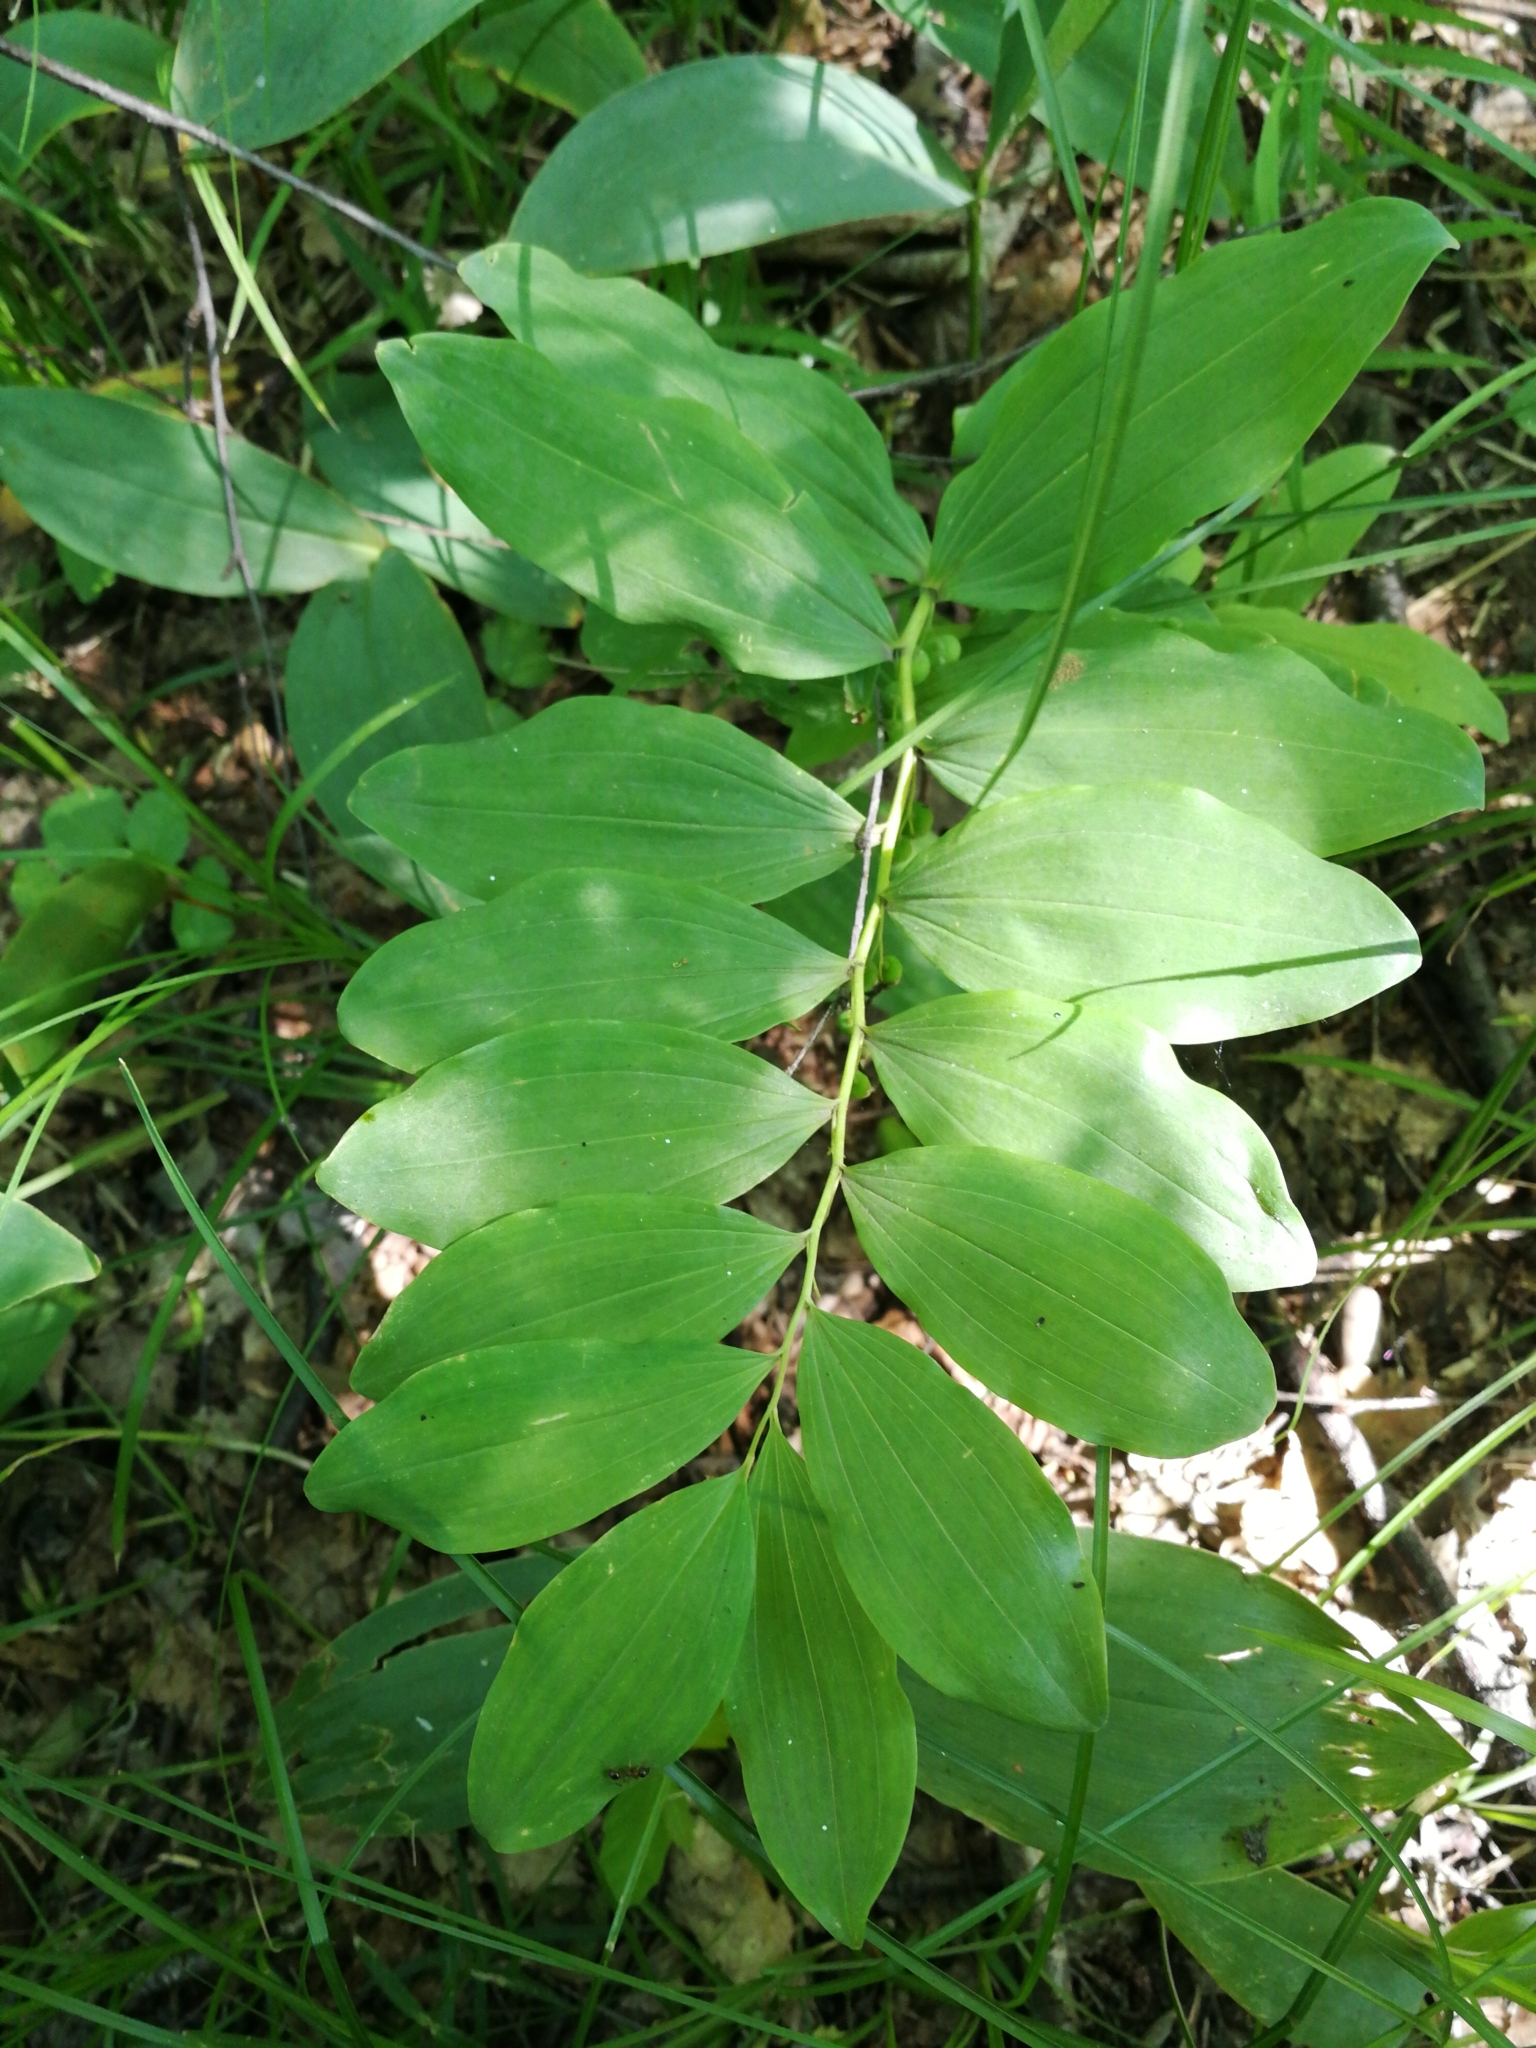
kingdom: Plantae
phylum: Tracheophyta
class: Liliopsida
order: Asparagales
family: Asparagaceae
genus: Polygonatum
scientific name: Polygonatum multiflorum
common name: Solomon's-seal
